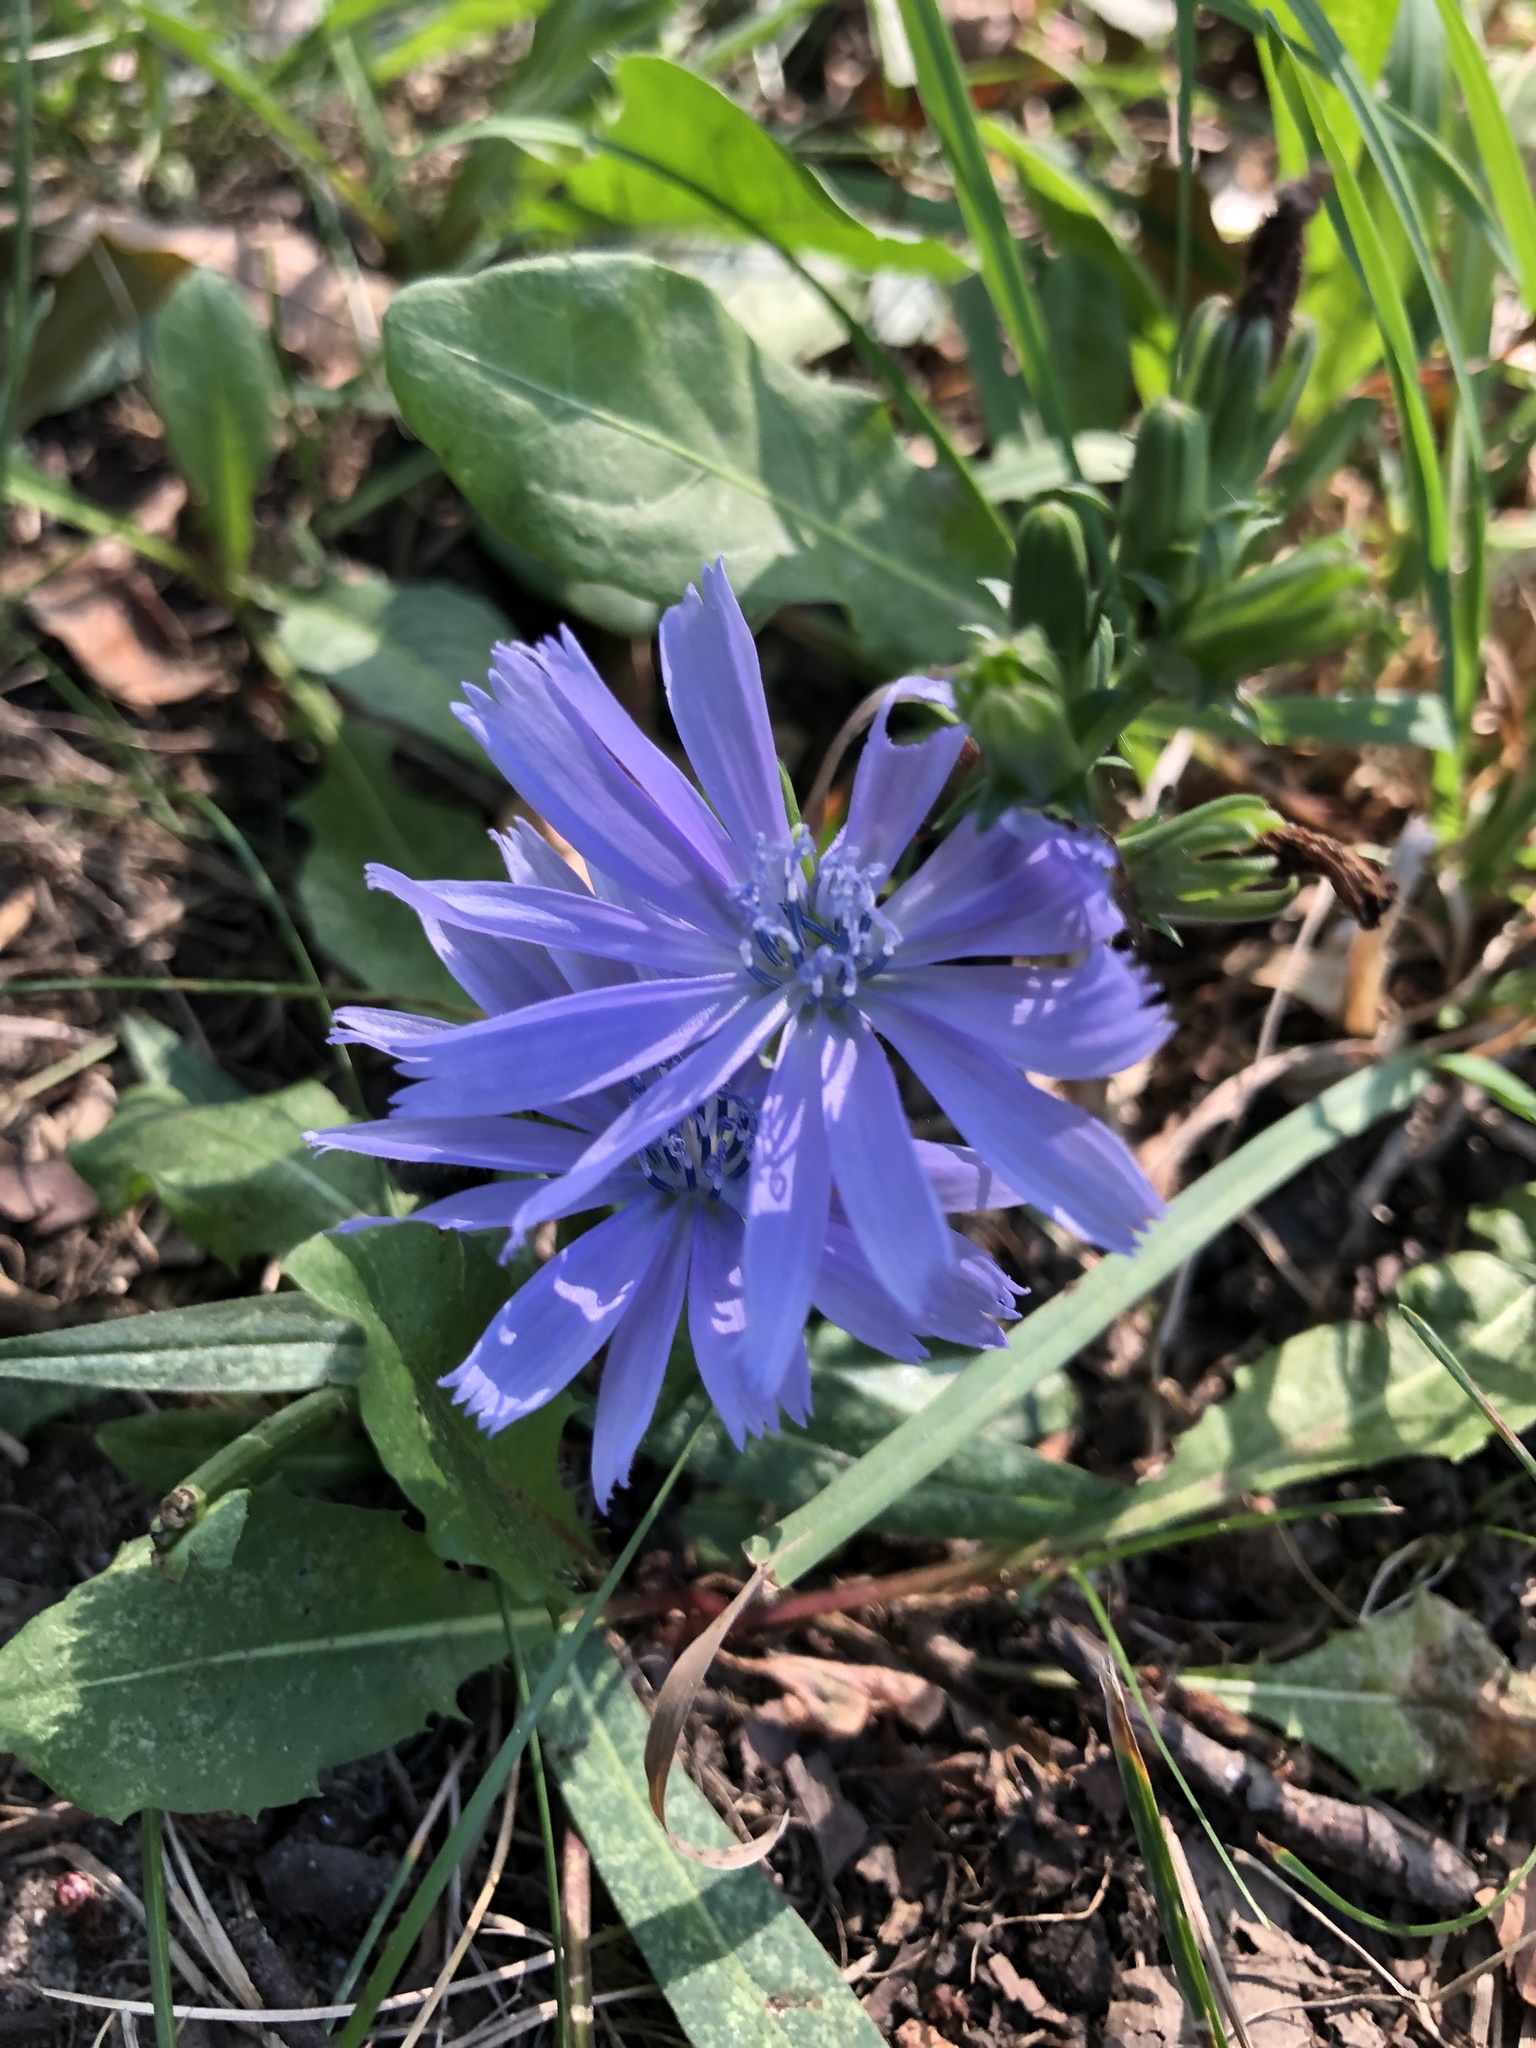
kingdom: Plantae
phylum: Tracheophyta
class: Magnoliopsida
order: Asterales
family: Asteraceae
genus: Cichorium
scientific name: Cichorium intybus
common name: Chicory
